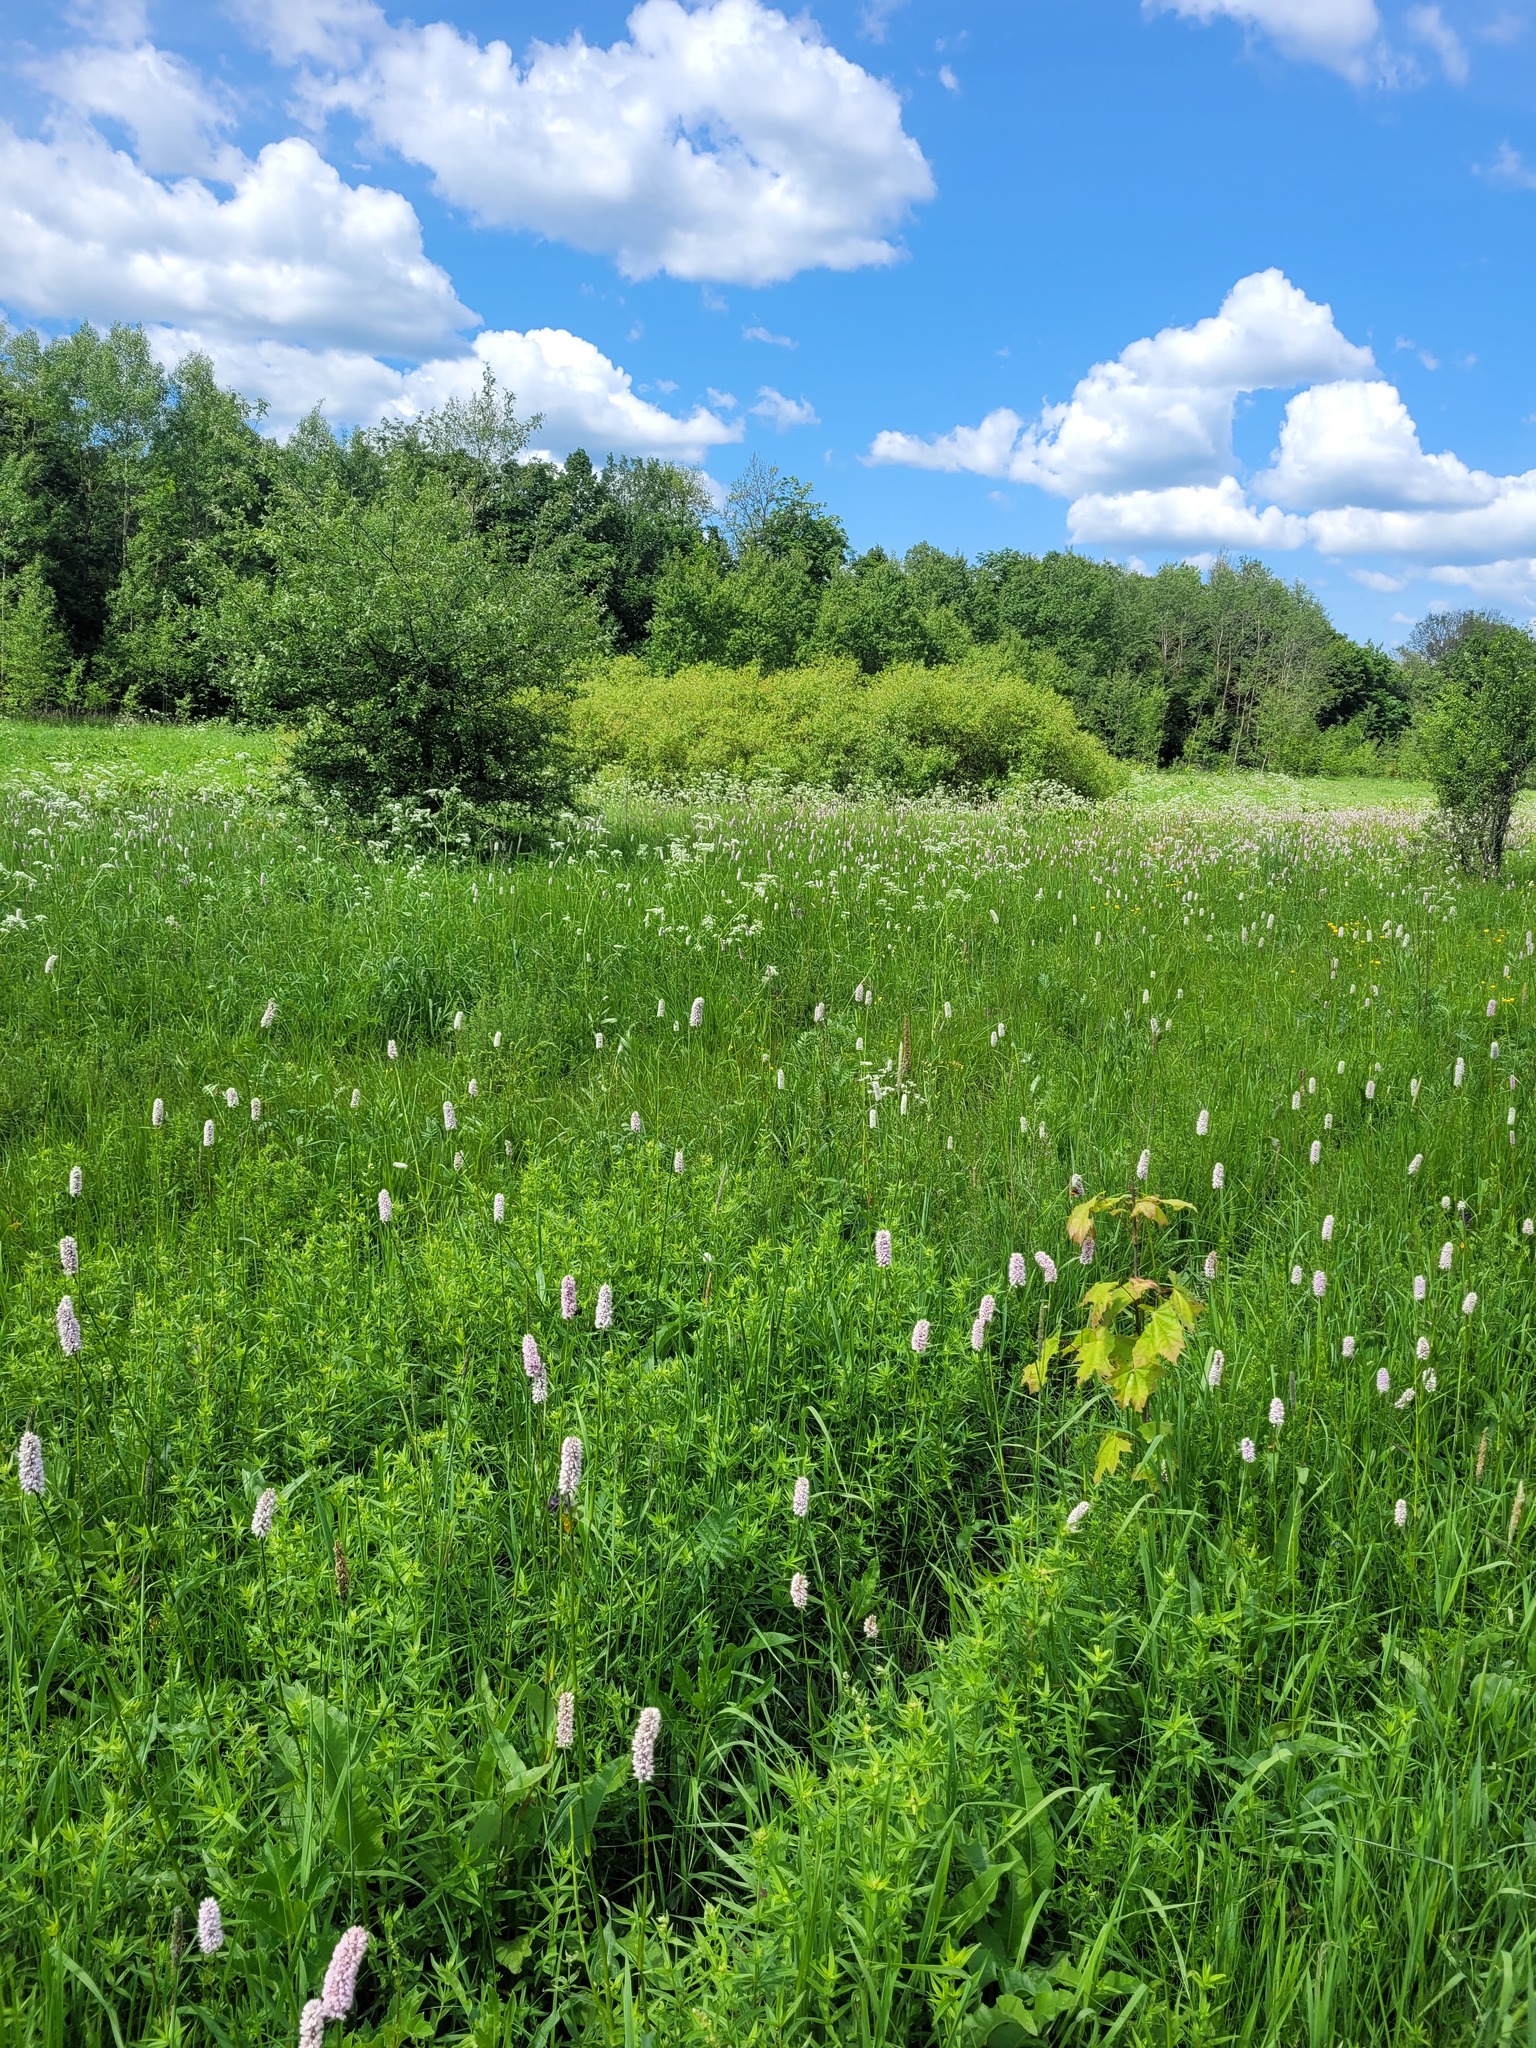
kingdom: Plantae
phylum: Tracheophyta
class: Magnoliopsida
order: Caryophyllales
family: Polygonaceae
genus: Bistorta
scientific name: Bistorta officinalis
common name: Common bistort
